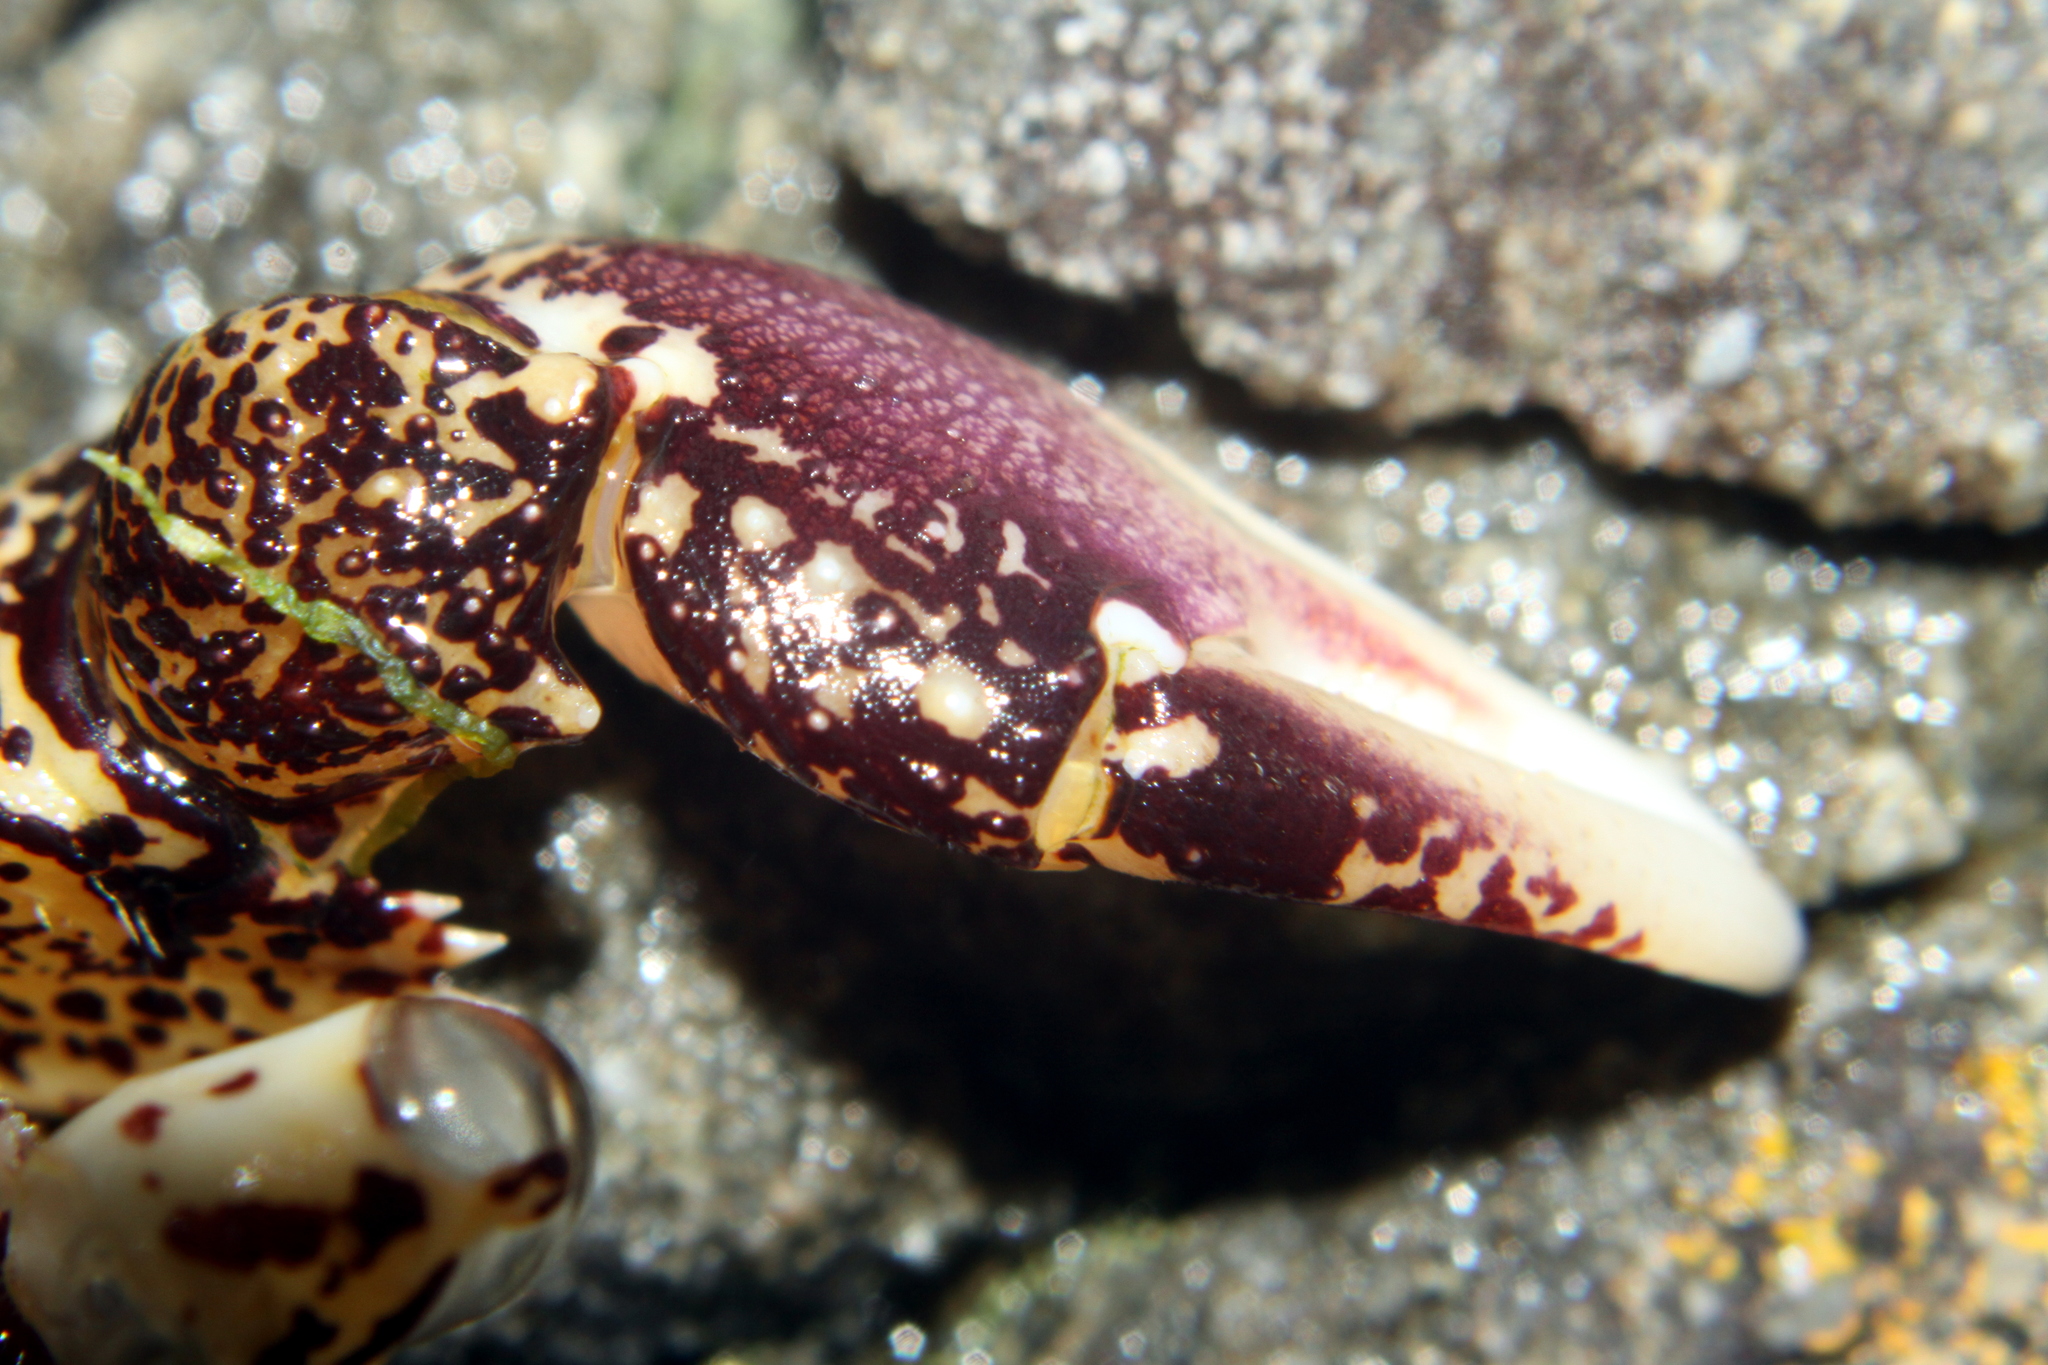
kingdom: Animalia
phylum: Arthropoda
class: Malacostraca
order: Decapoda
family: Grapsidae
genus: Leptograpsus
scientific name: Leptograpsus variegatus
